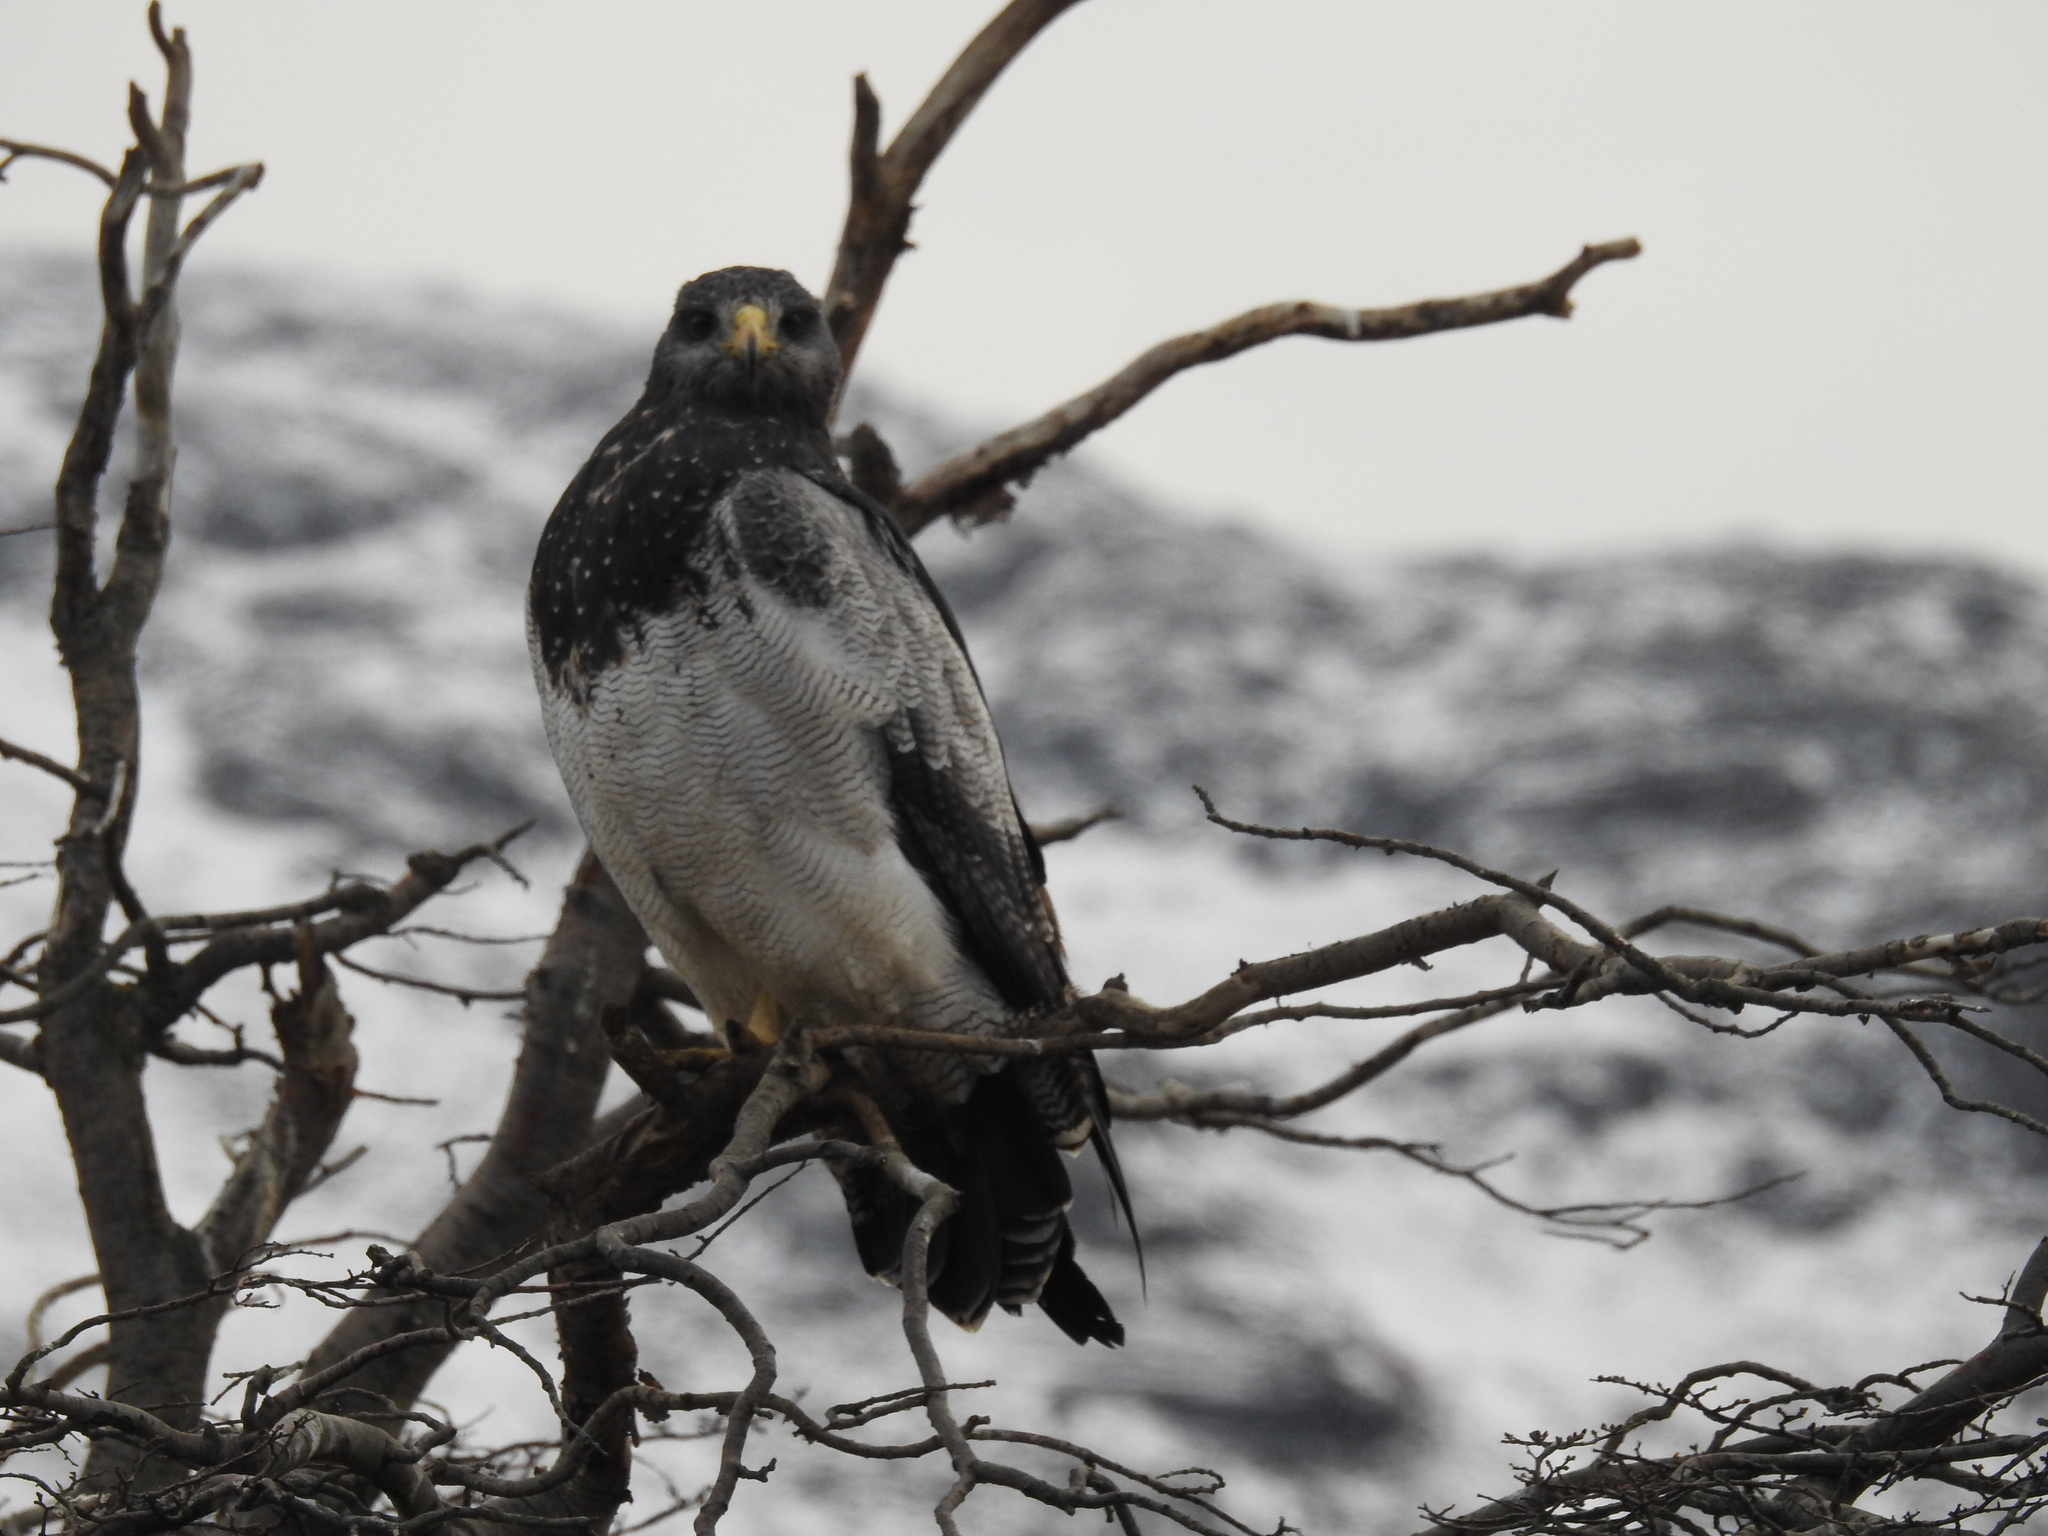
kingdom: Animalia
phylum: Chordata
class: Aves
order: Accipitriformes
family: Accipitridae
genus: Geranoaetus
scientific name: Geranoaetus melanoleucus
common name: Black-chested buzzard-eagle
